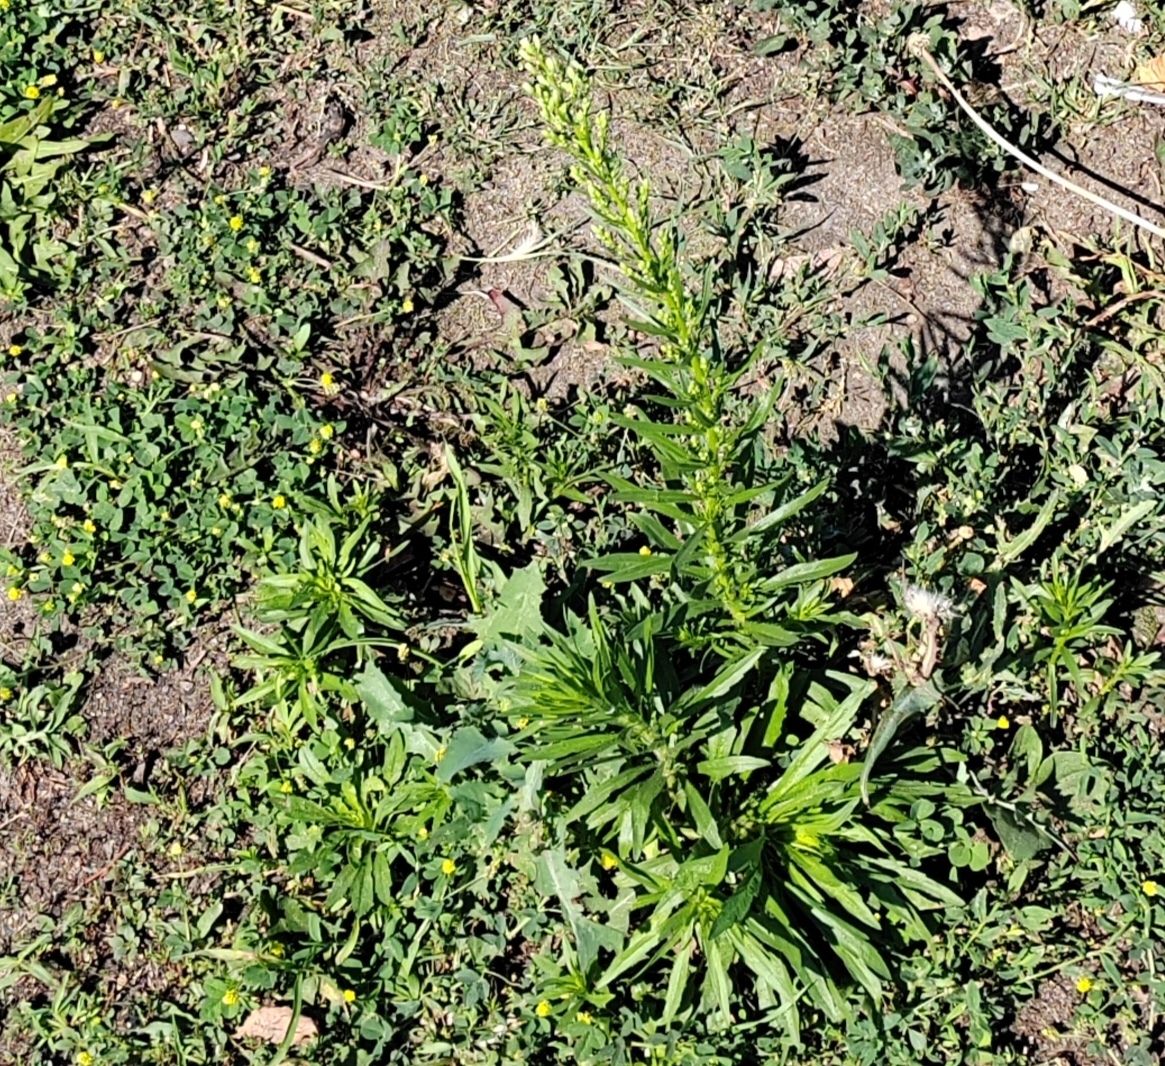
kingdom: Plantae
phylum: Tracheophyta
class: Magnoliopsida
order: Asterales
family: Asteraceae
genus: Erigeron
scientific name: Erigeron canadensis
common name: Canadian fleabane
